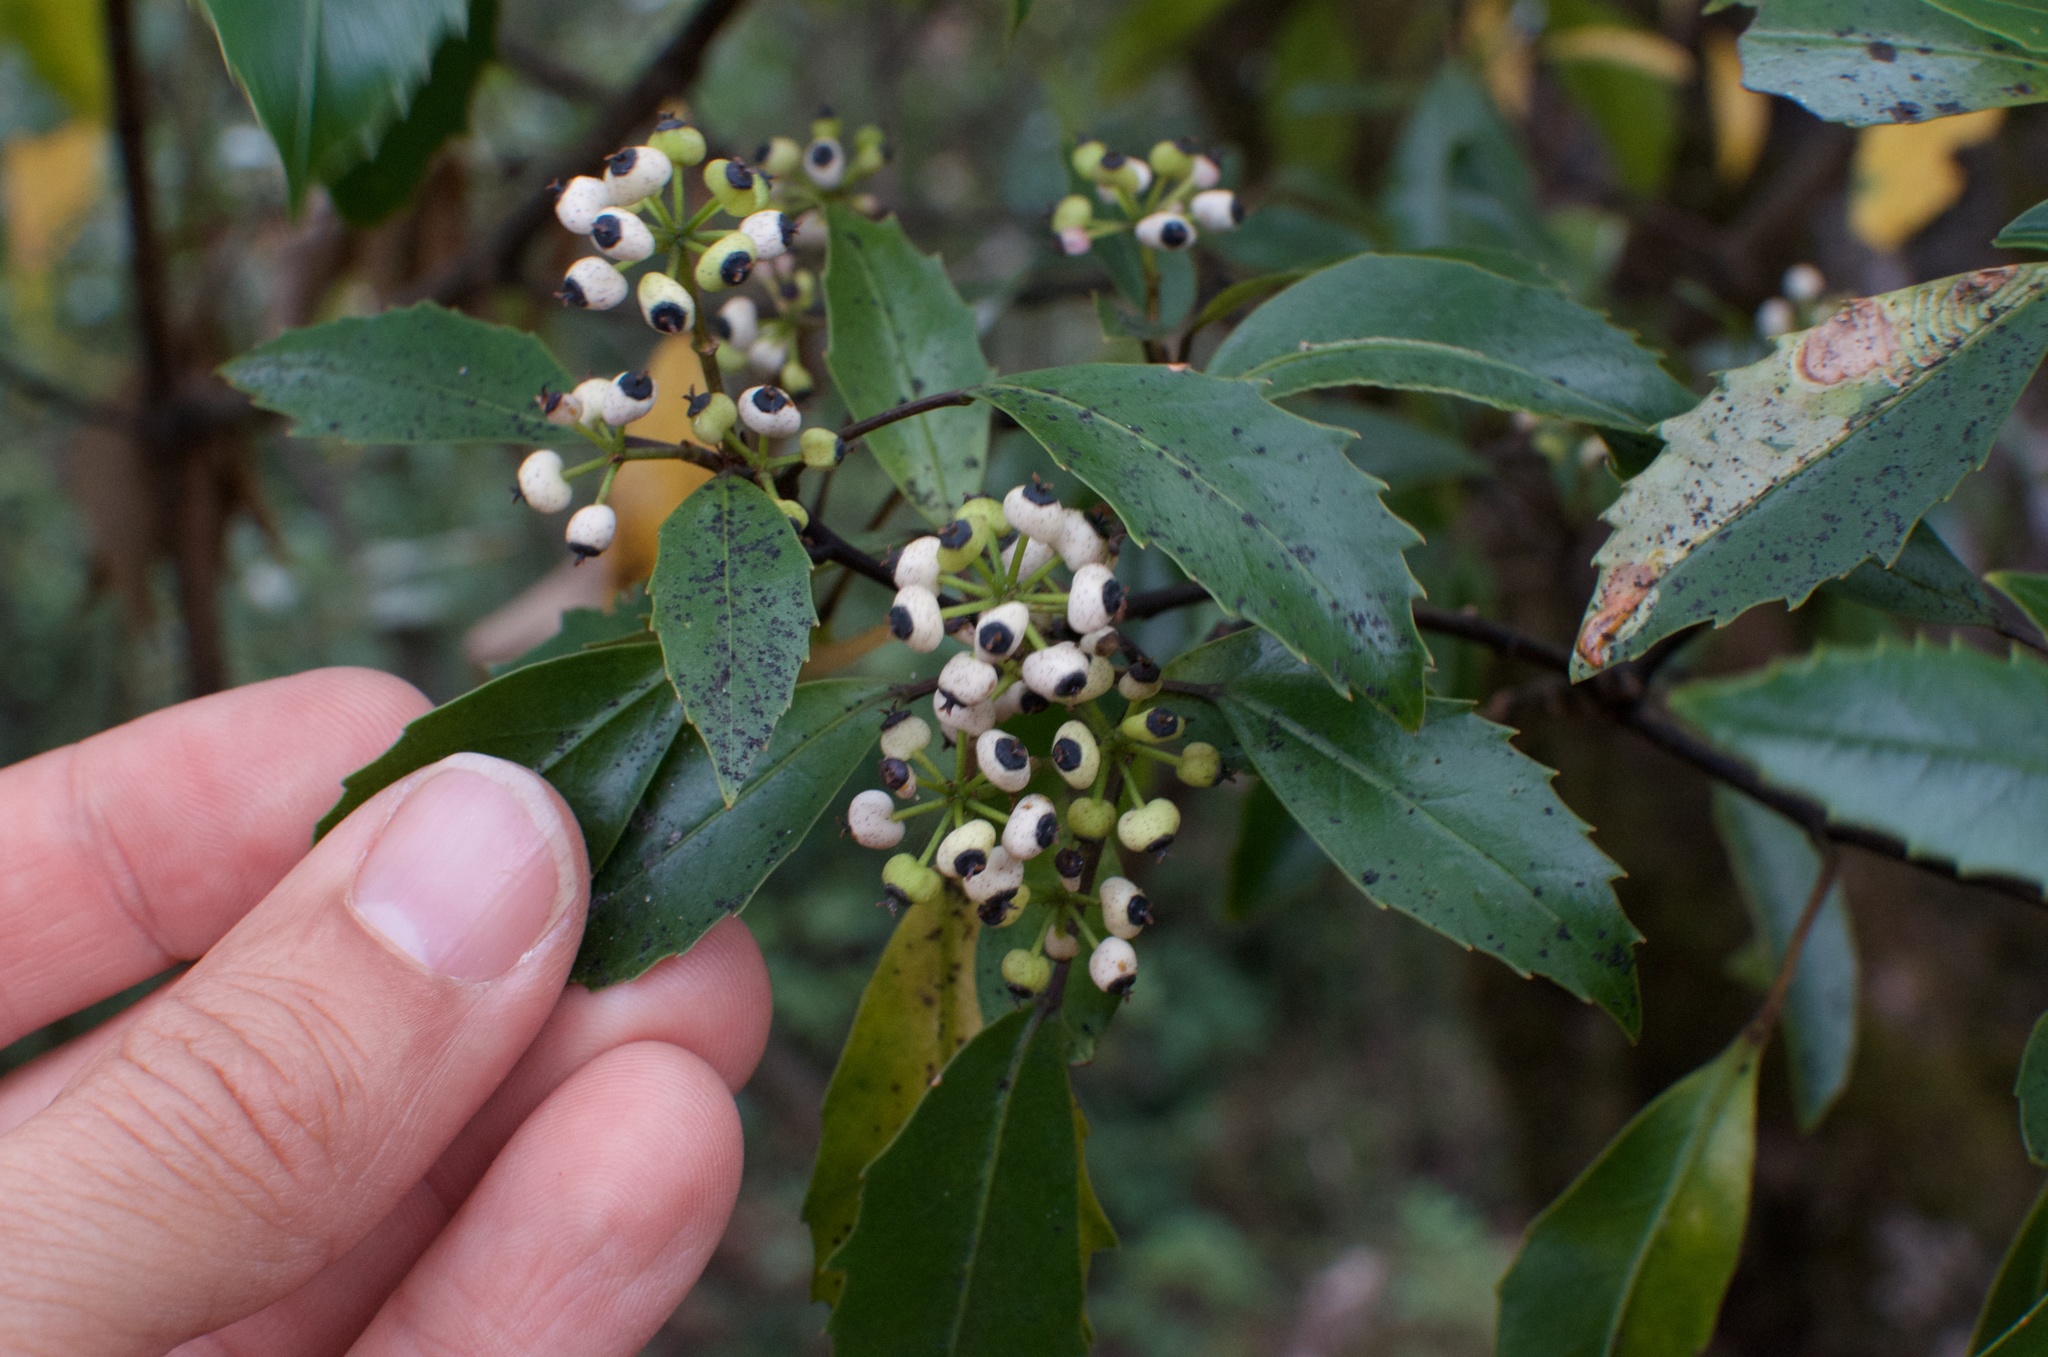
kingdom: Plantae
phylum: Tracheophyta
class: Magnoliopsida
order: Apiales
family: Araliaceae
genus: Raukaua
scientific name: Raukaua simplex
